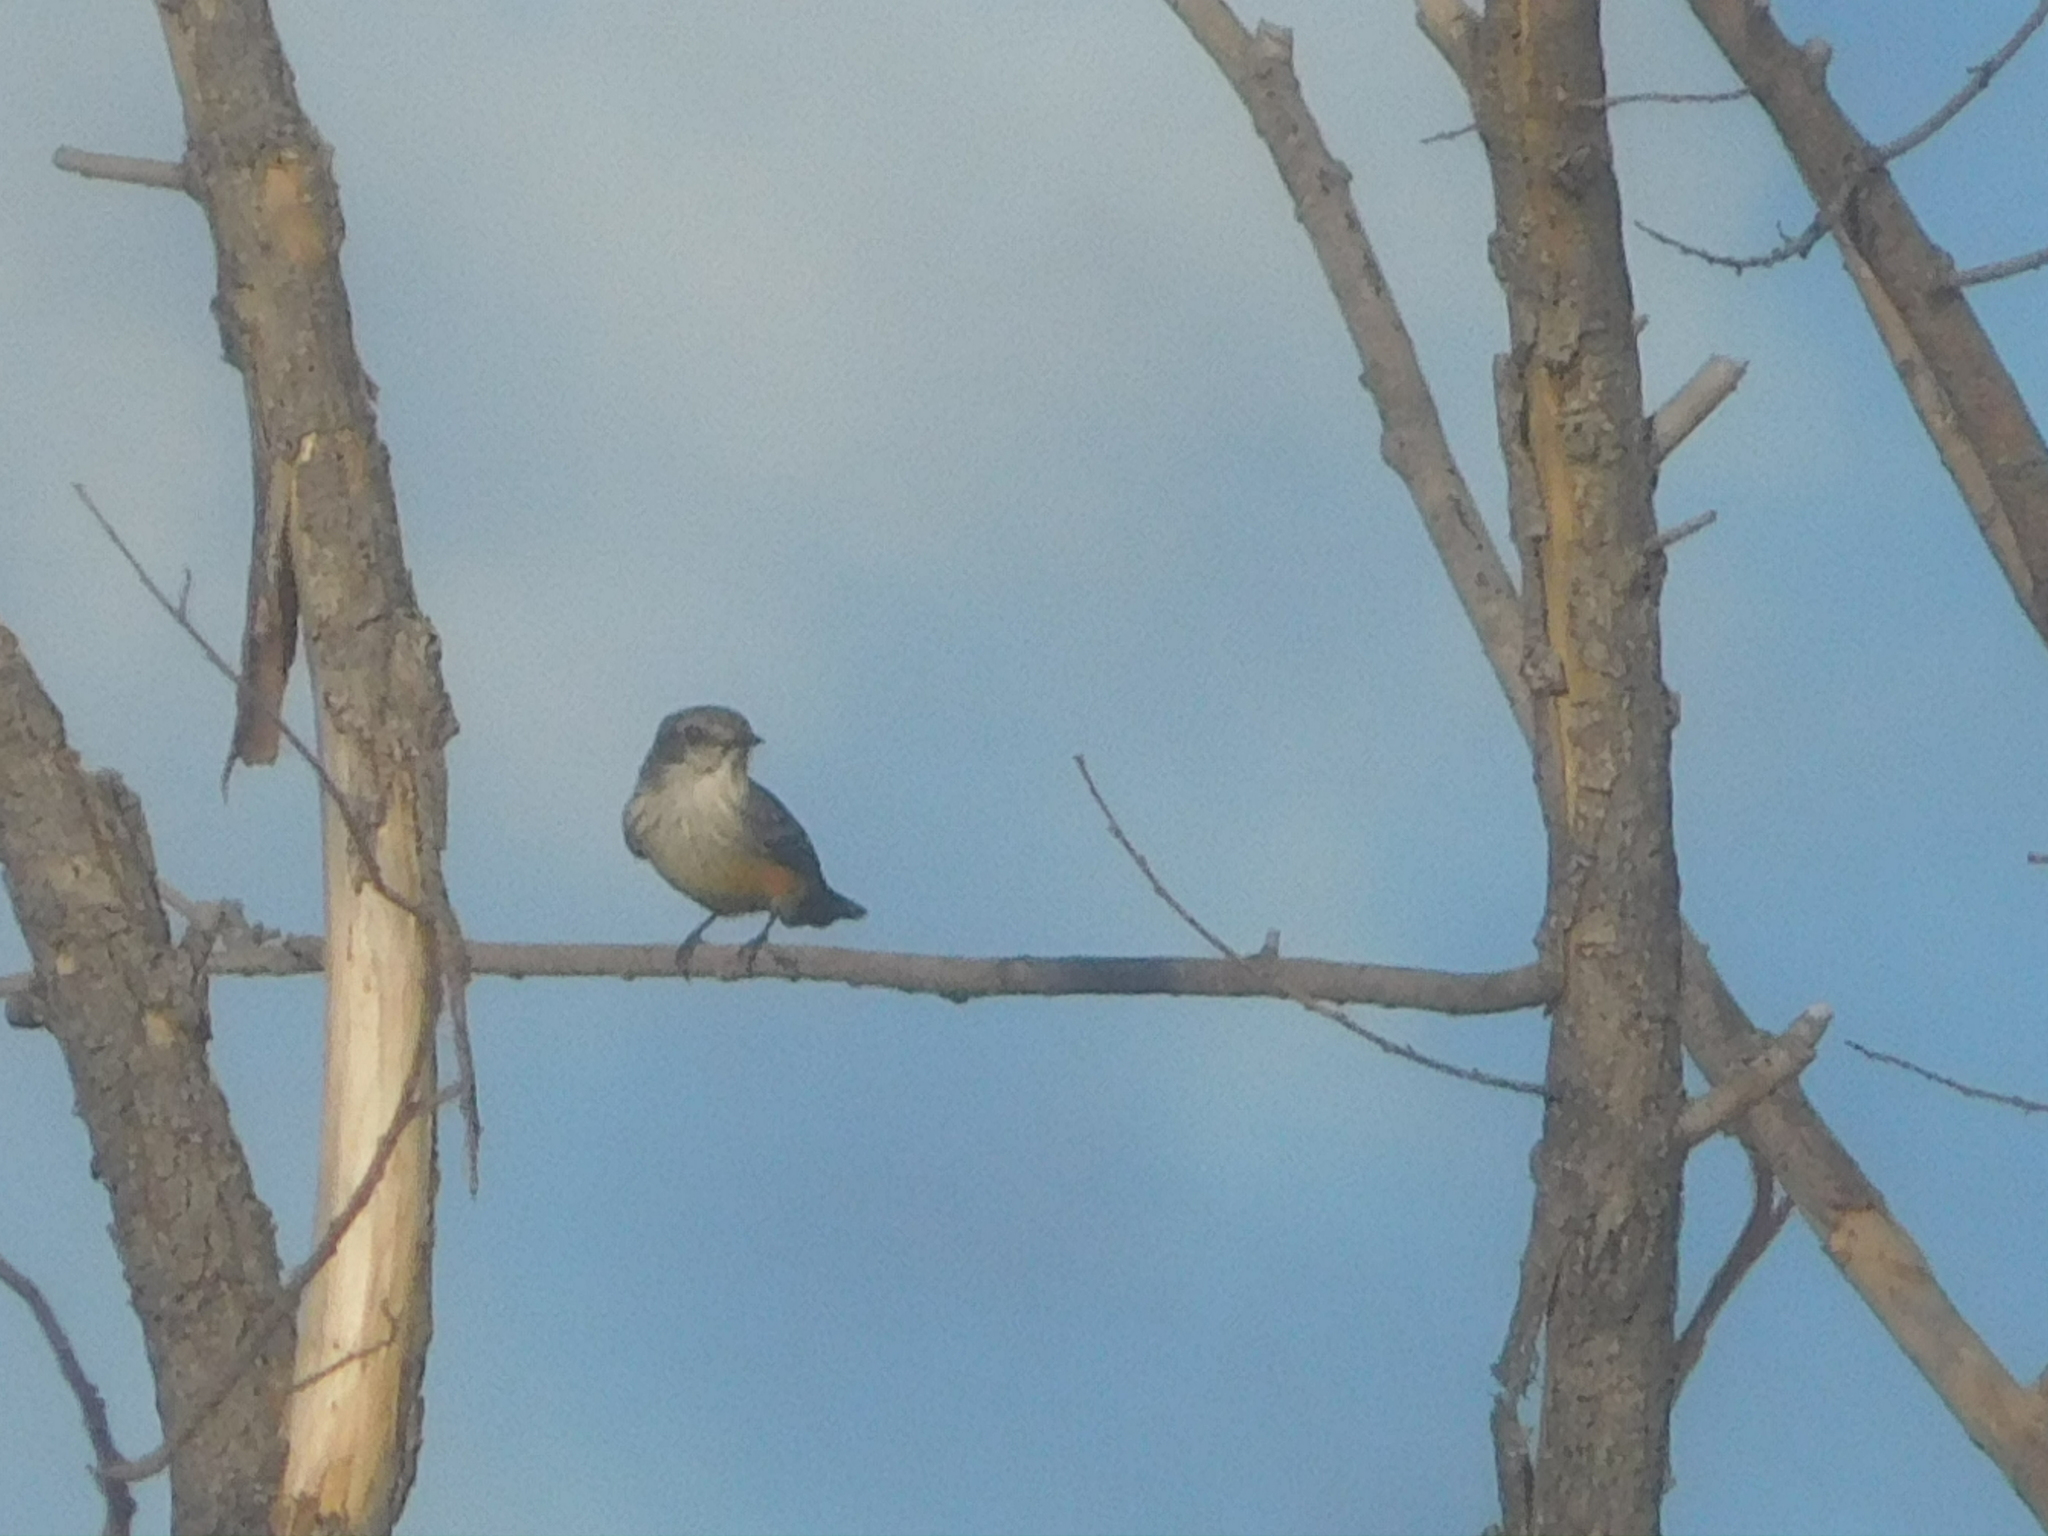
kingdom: Animalia
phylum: Chordata
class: Aves
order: Passeriformes
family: Tyrannidae
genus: Pyrocephalus
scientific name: Pyrocephalus rubinus
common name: Vermilion flycatcher
